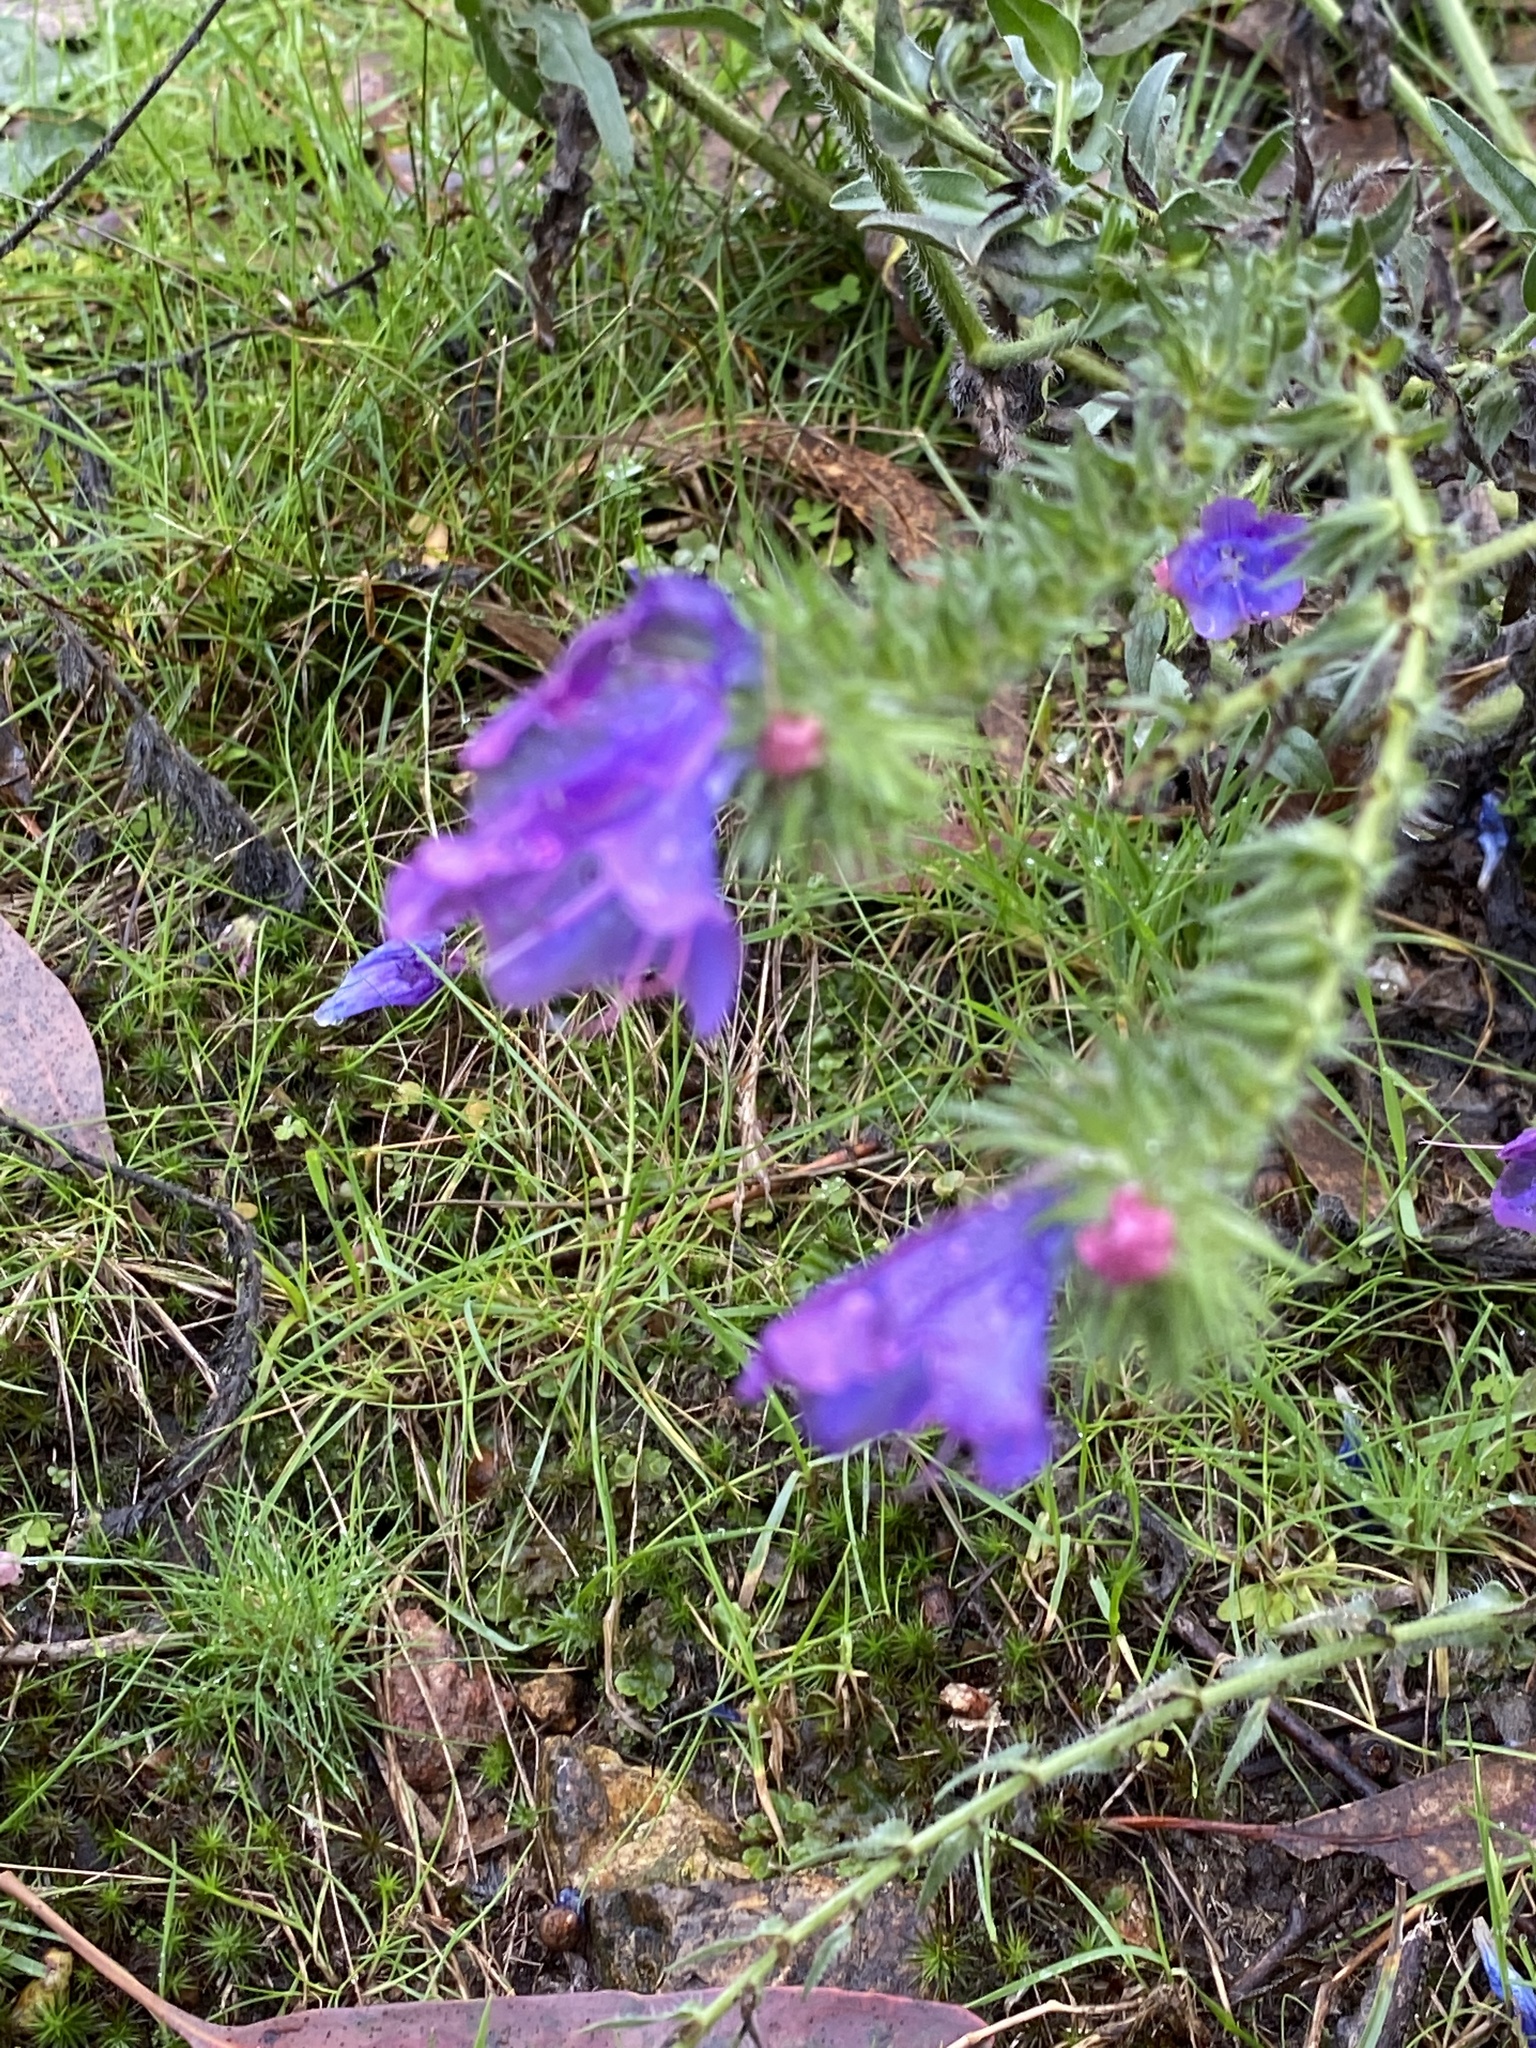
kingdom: Plantae
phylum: Tracheophyta
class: Magnoliopsida
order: Boraginales
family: Boraginaceae
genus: Echium
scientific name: Echium plantagineum
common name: Purple viper's-bugloss
